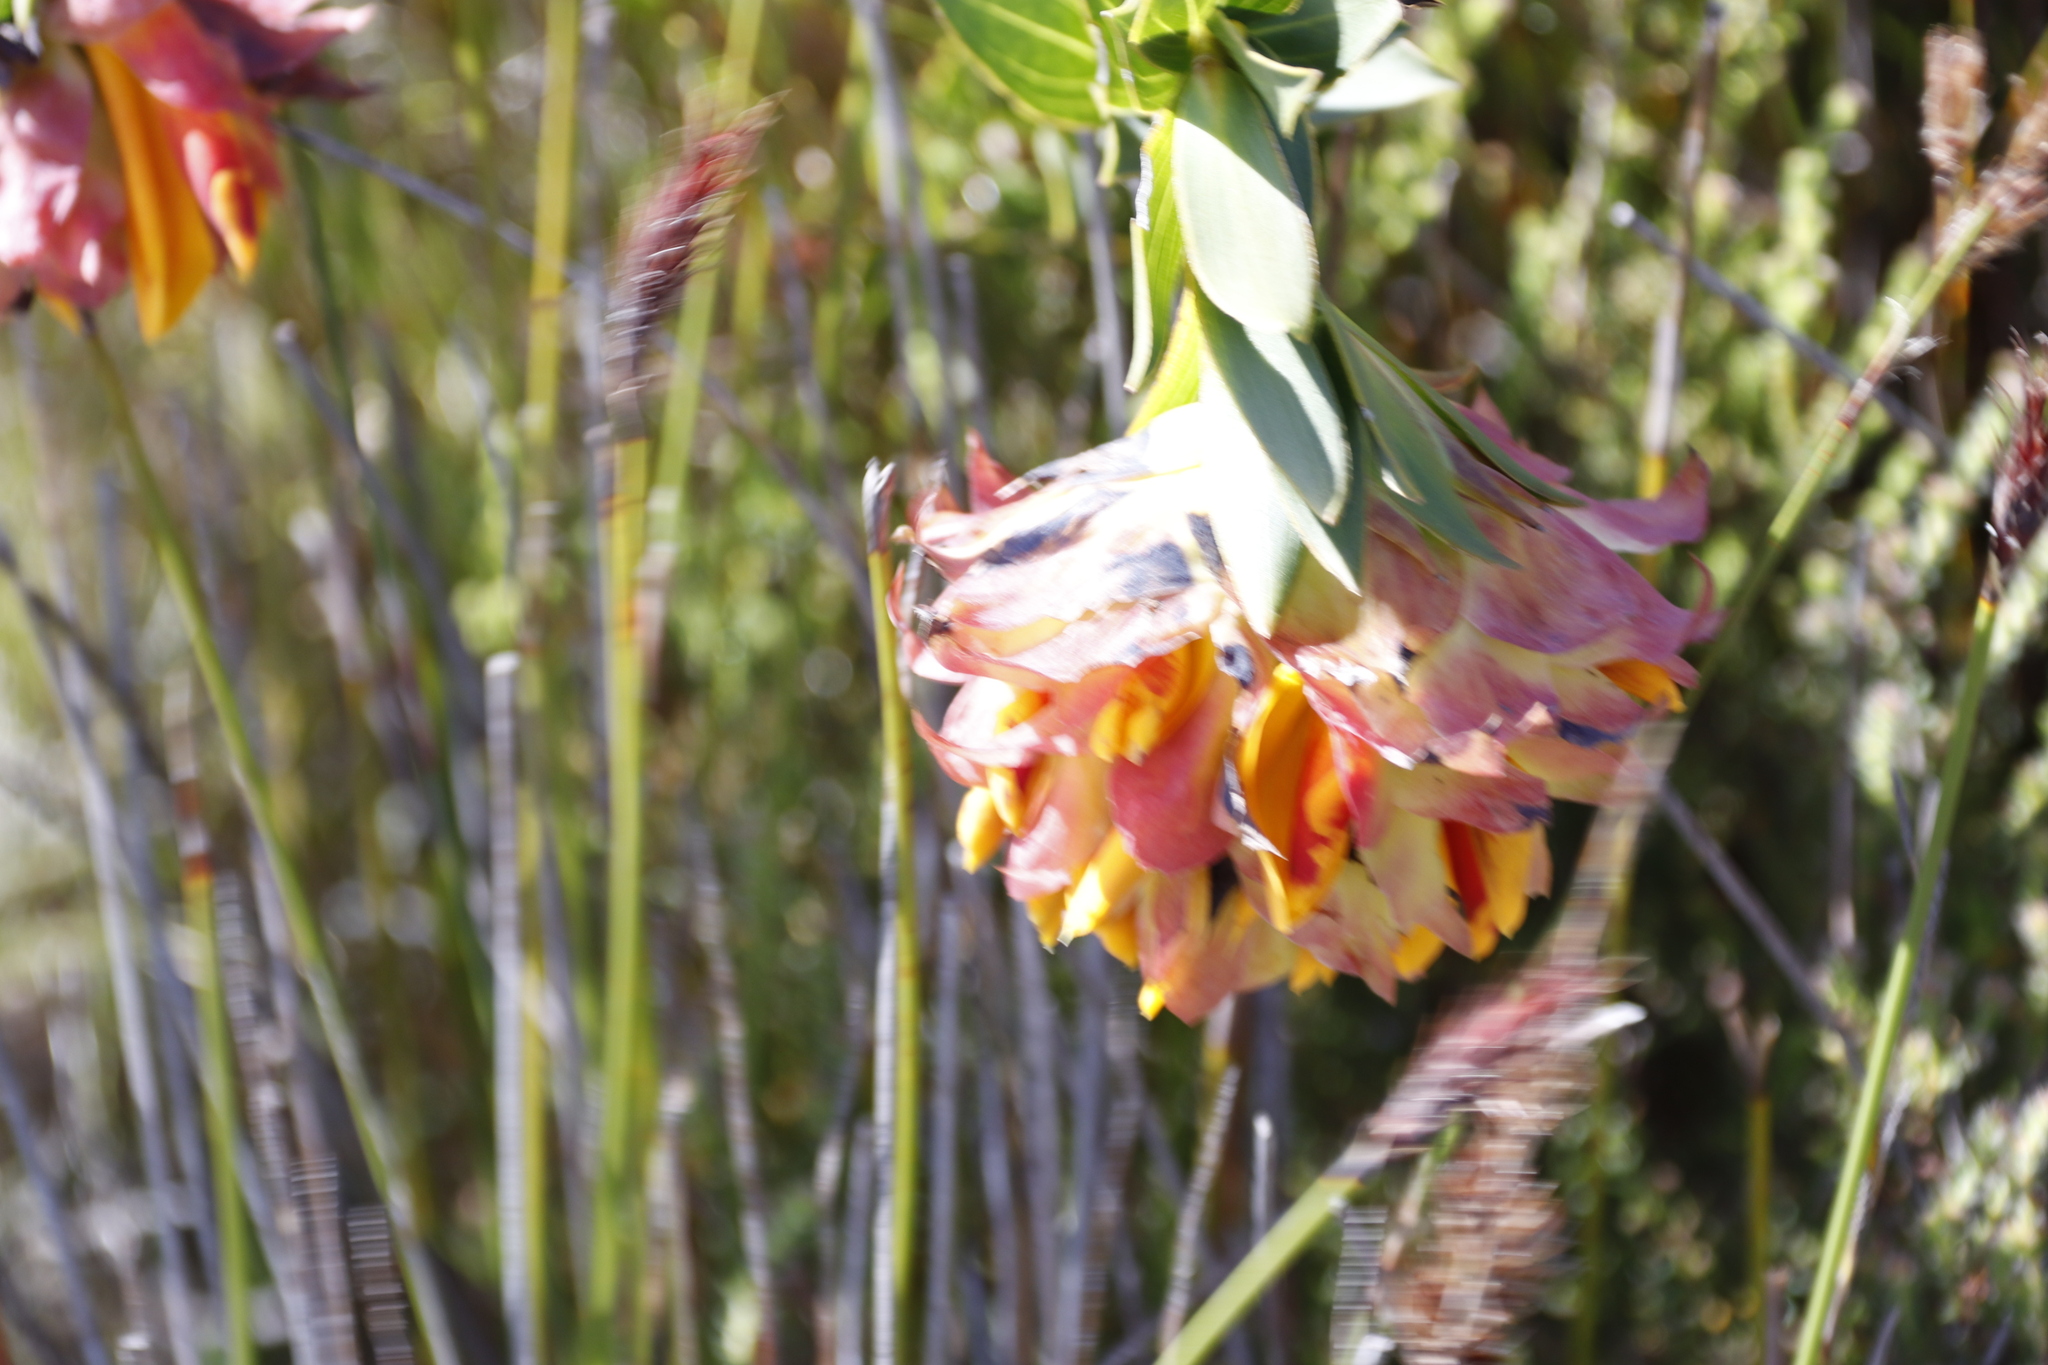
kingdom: Plantae
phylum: Tracheophyta
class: Magnoliopsida
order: Fabales
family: Fabaceae
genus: Liparia
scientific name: Liparia splendens
